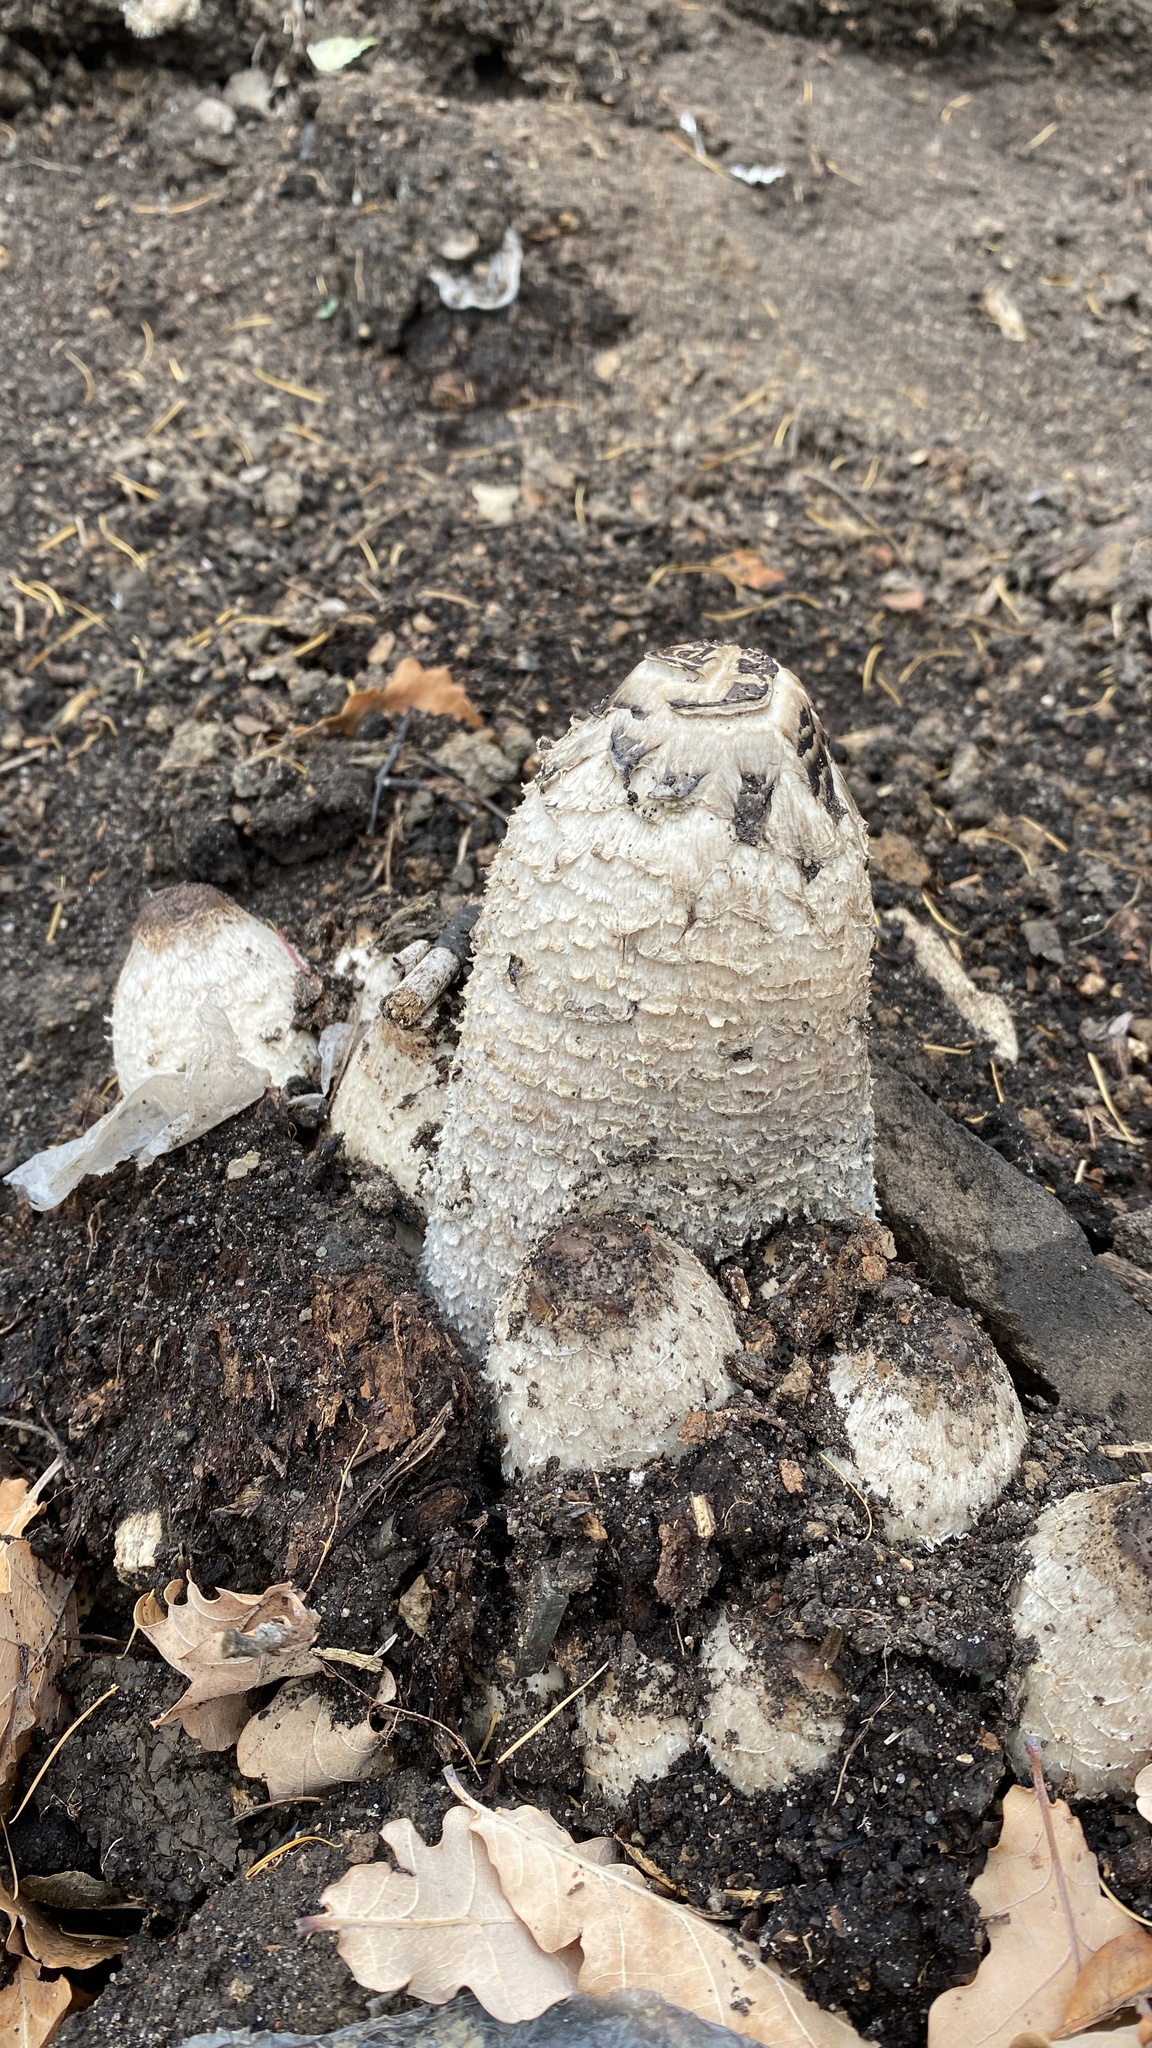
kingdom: Fungi
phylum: Basidiomycota
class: Agaricomycetes
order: Agaricales
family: Agaricaceae
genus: Coprinus
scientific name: Coprinus comatus
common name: Lawyer's wig
